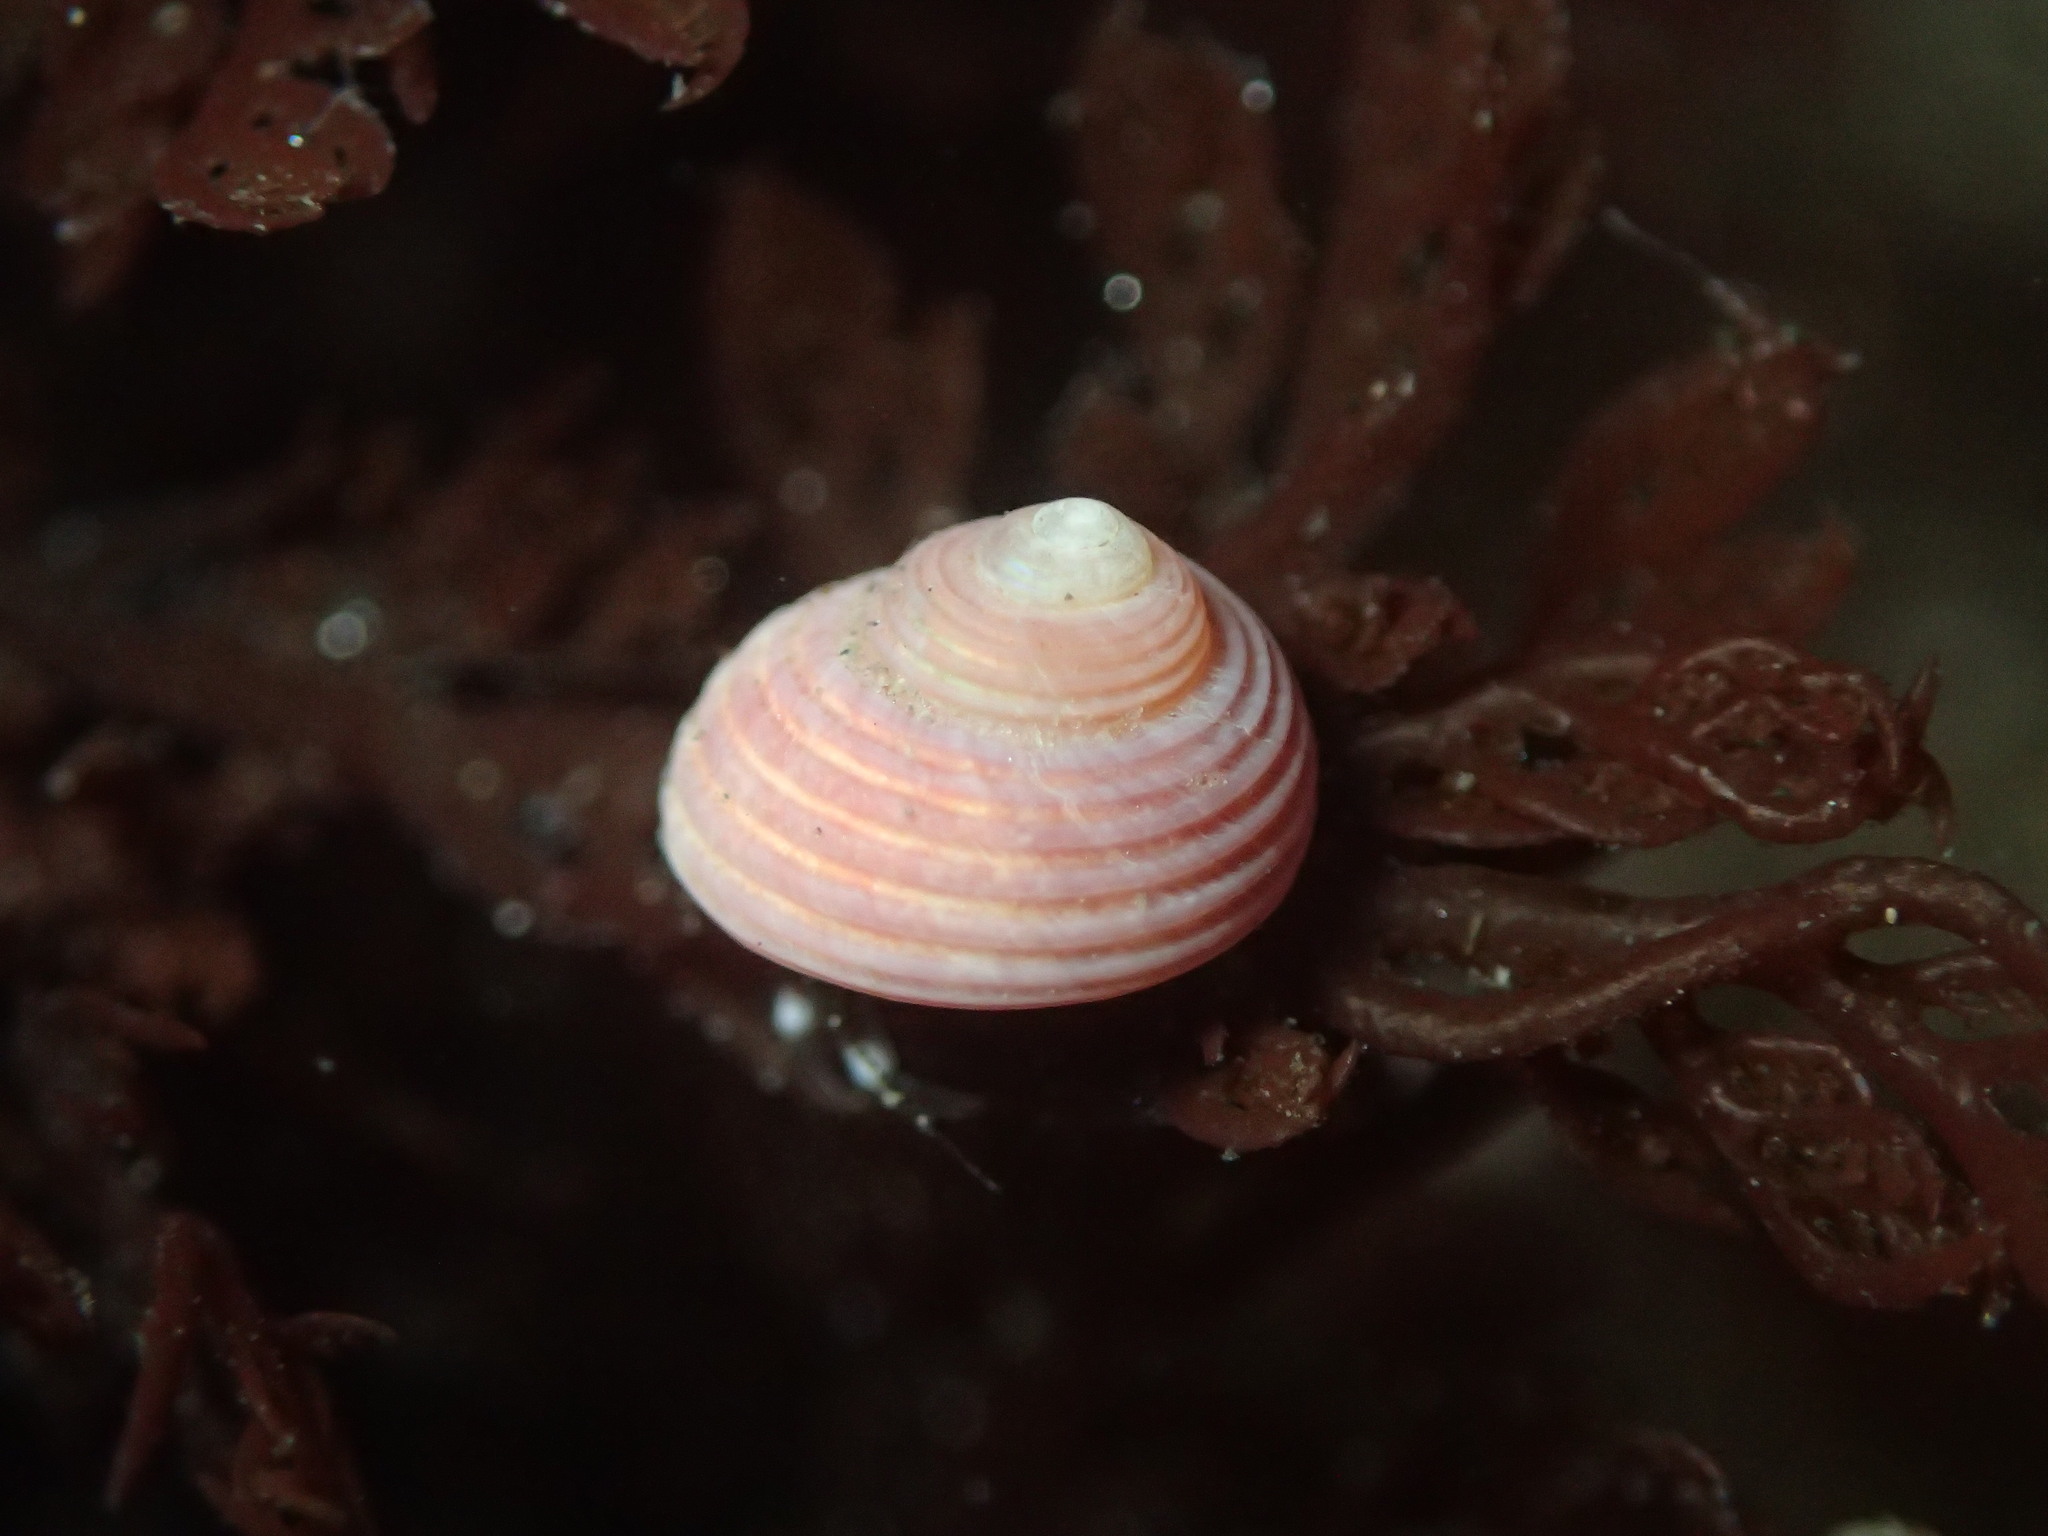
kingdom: Animalia
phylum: Mollusca
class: Gastropoda
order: Trochida
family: Margaritidae
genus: Margarites
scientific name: Margarites pupillus
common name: Puppet margarite
